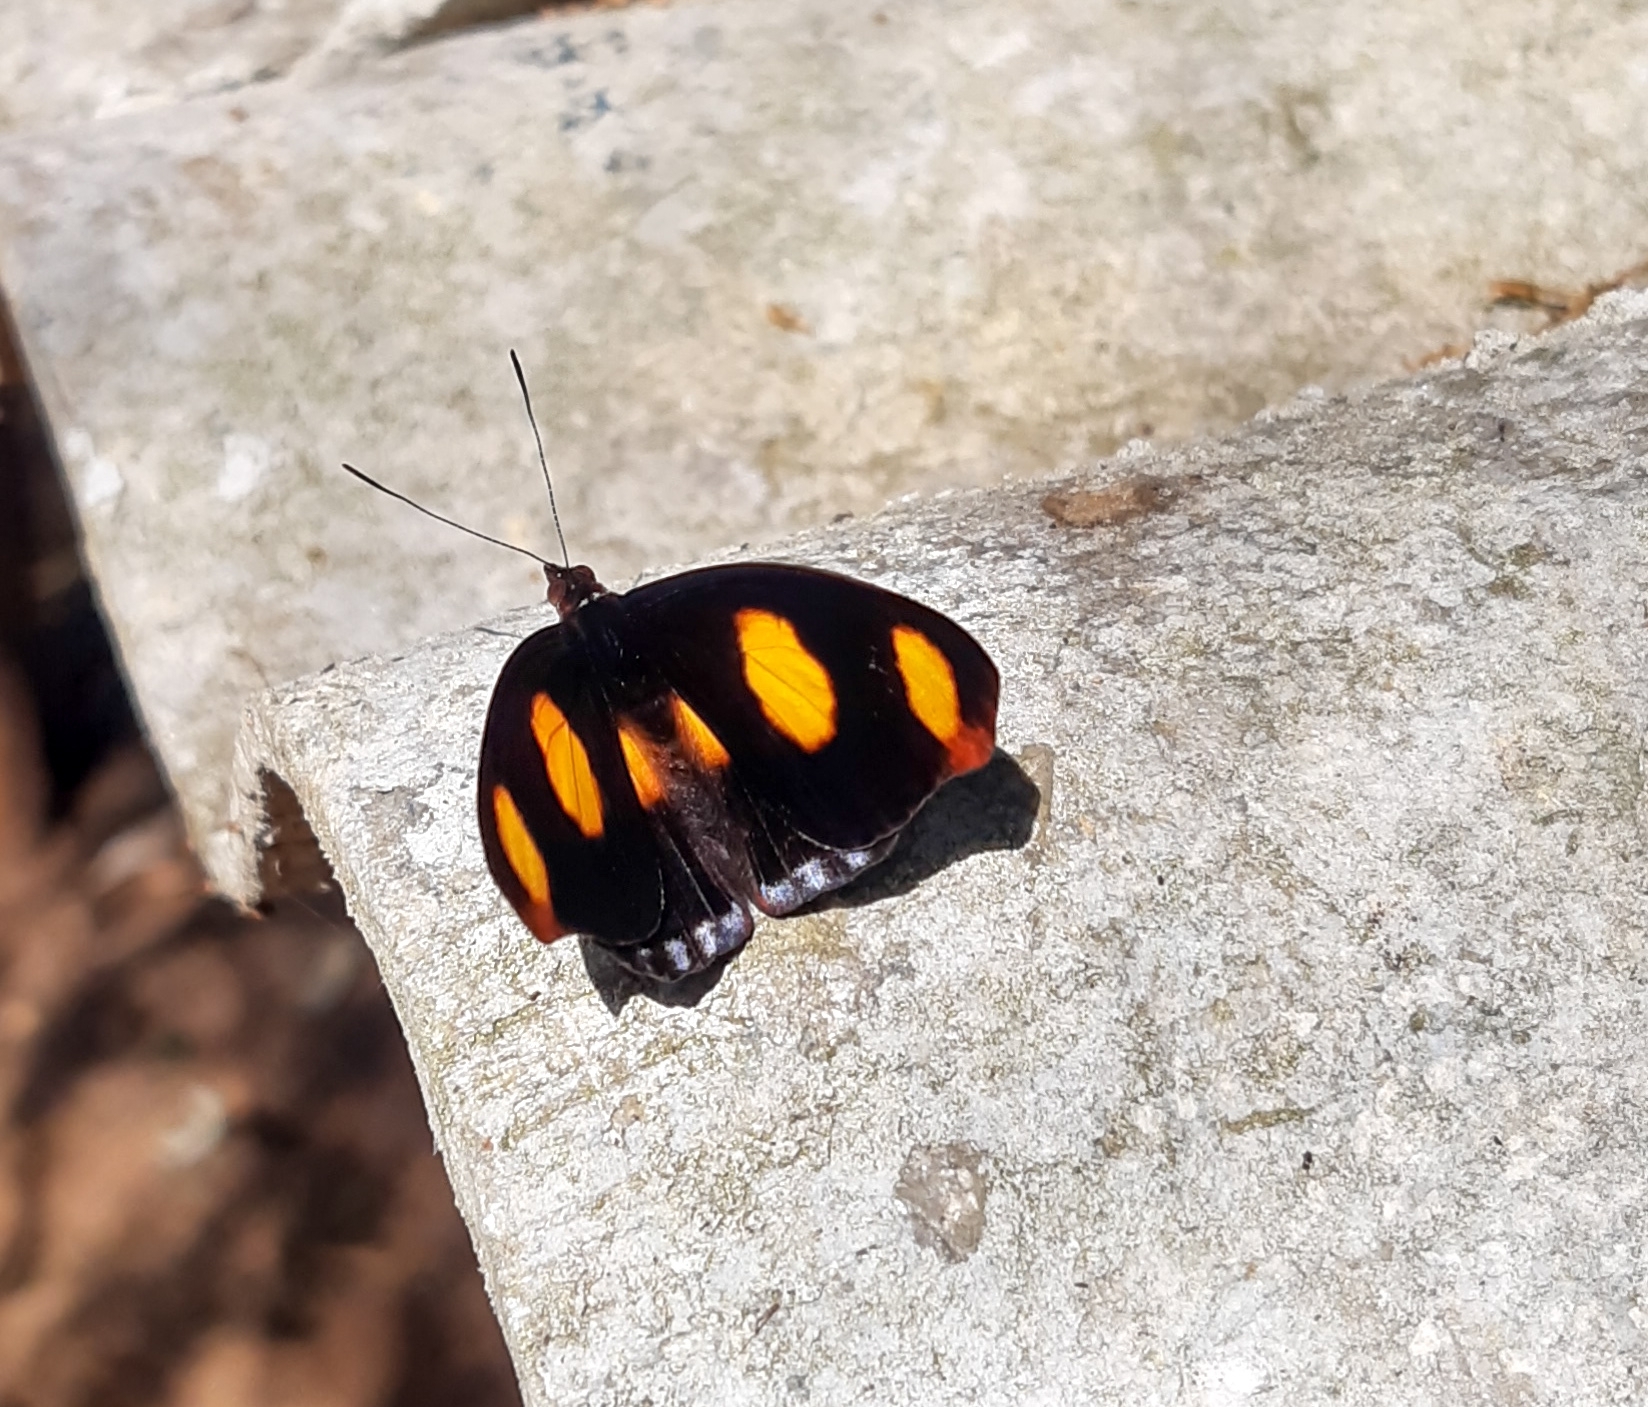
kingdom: Animalia
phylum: Arthropoda
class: Insecta
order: Lepidoptera
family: Nymphalidae
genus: Catonephele
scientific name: Catonephele numilia
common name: Blue-frosted banner
